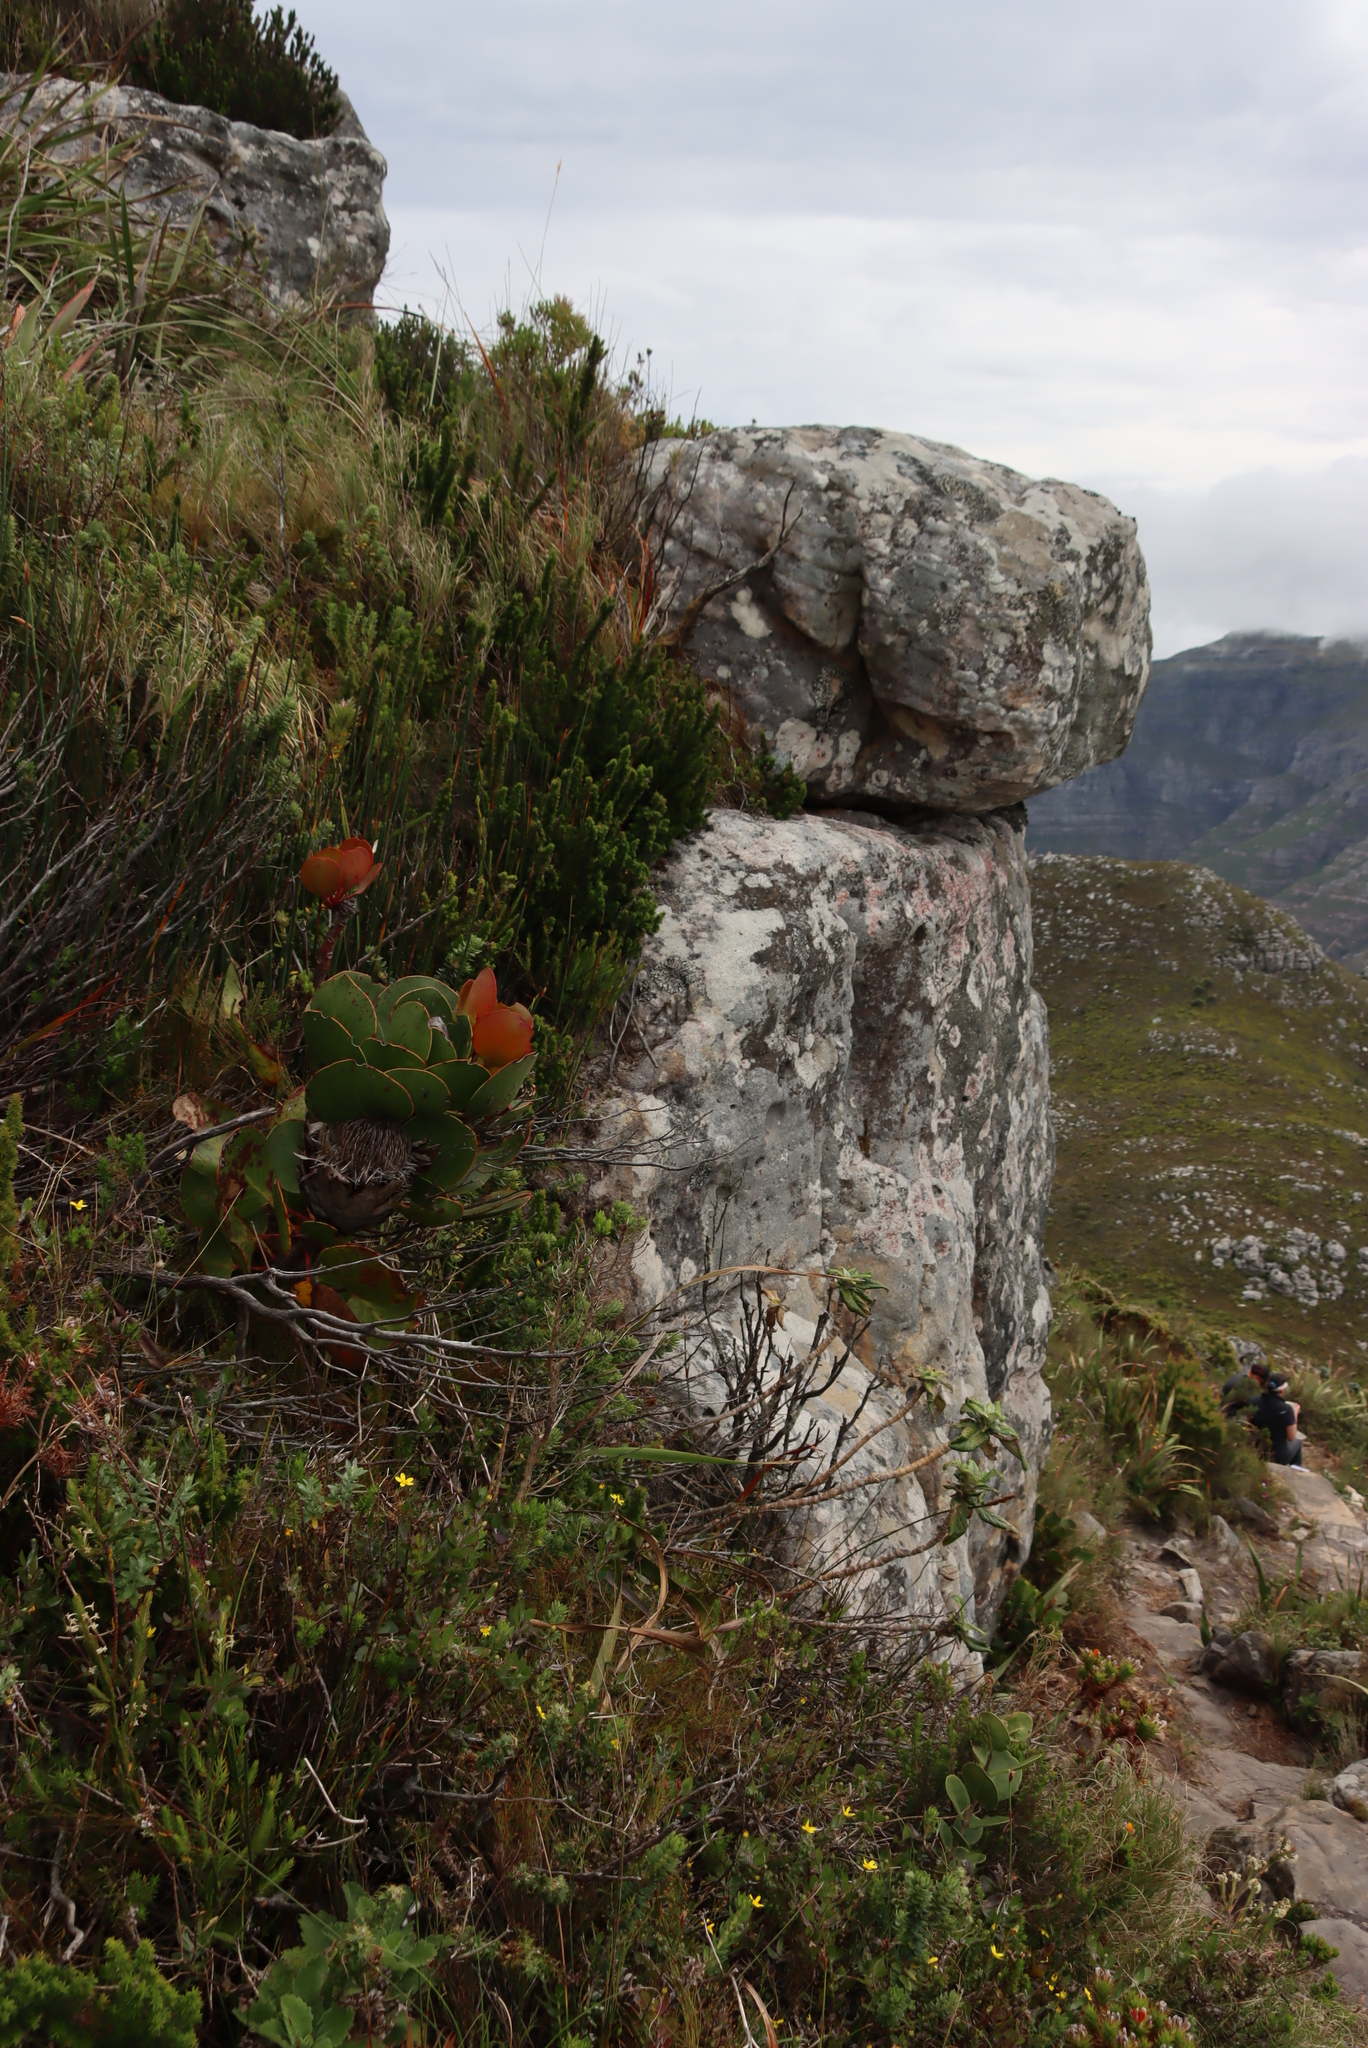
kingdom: Plantae
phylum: Tracheophyta
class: Magnoliopsida
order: Proteales
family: Proteaceae
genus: Protea
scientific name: Protea cynaroides
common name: King protea
